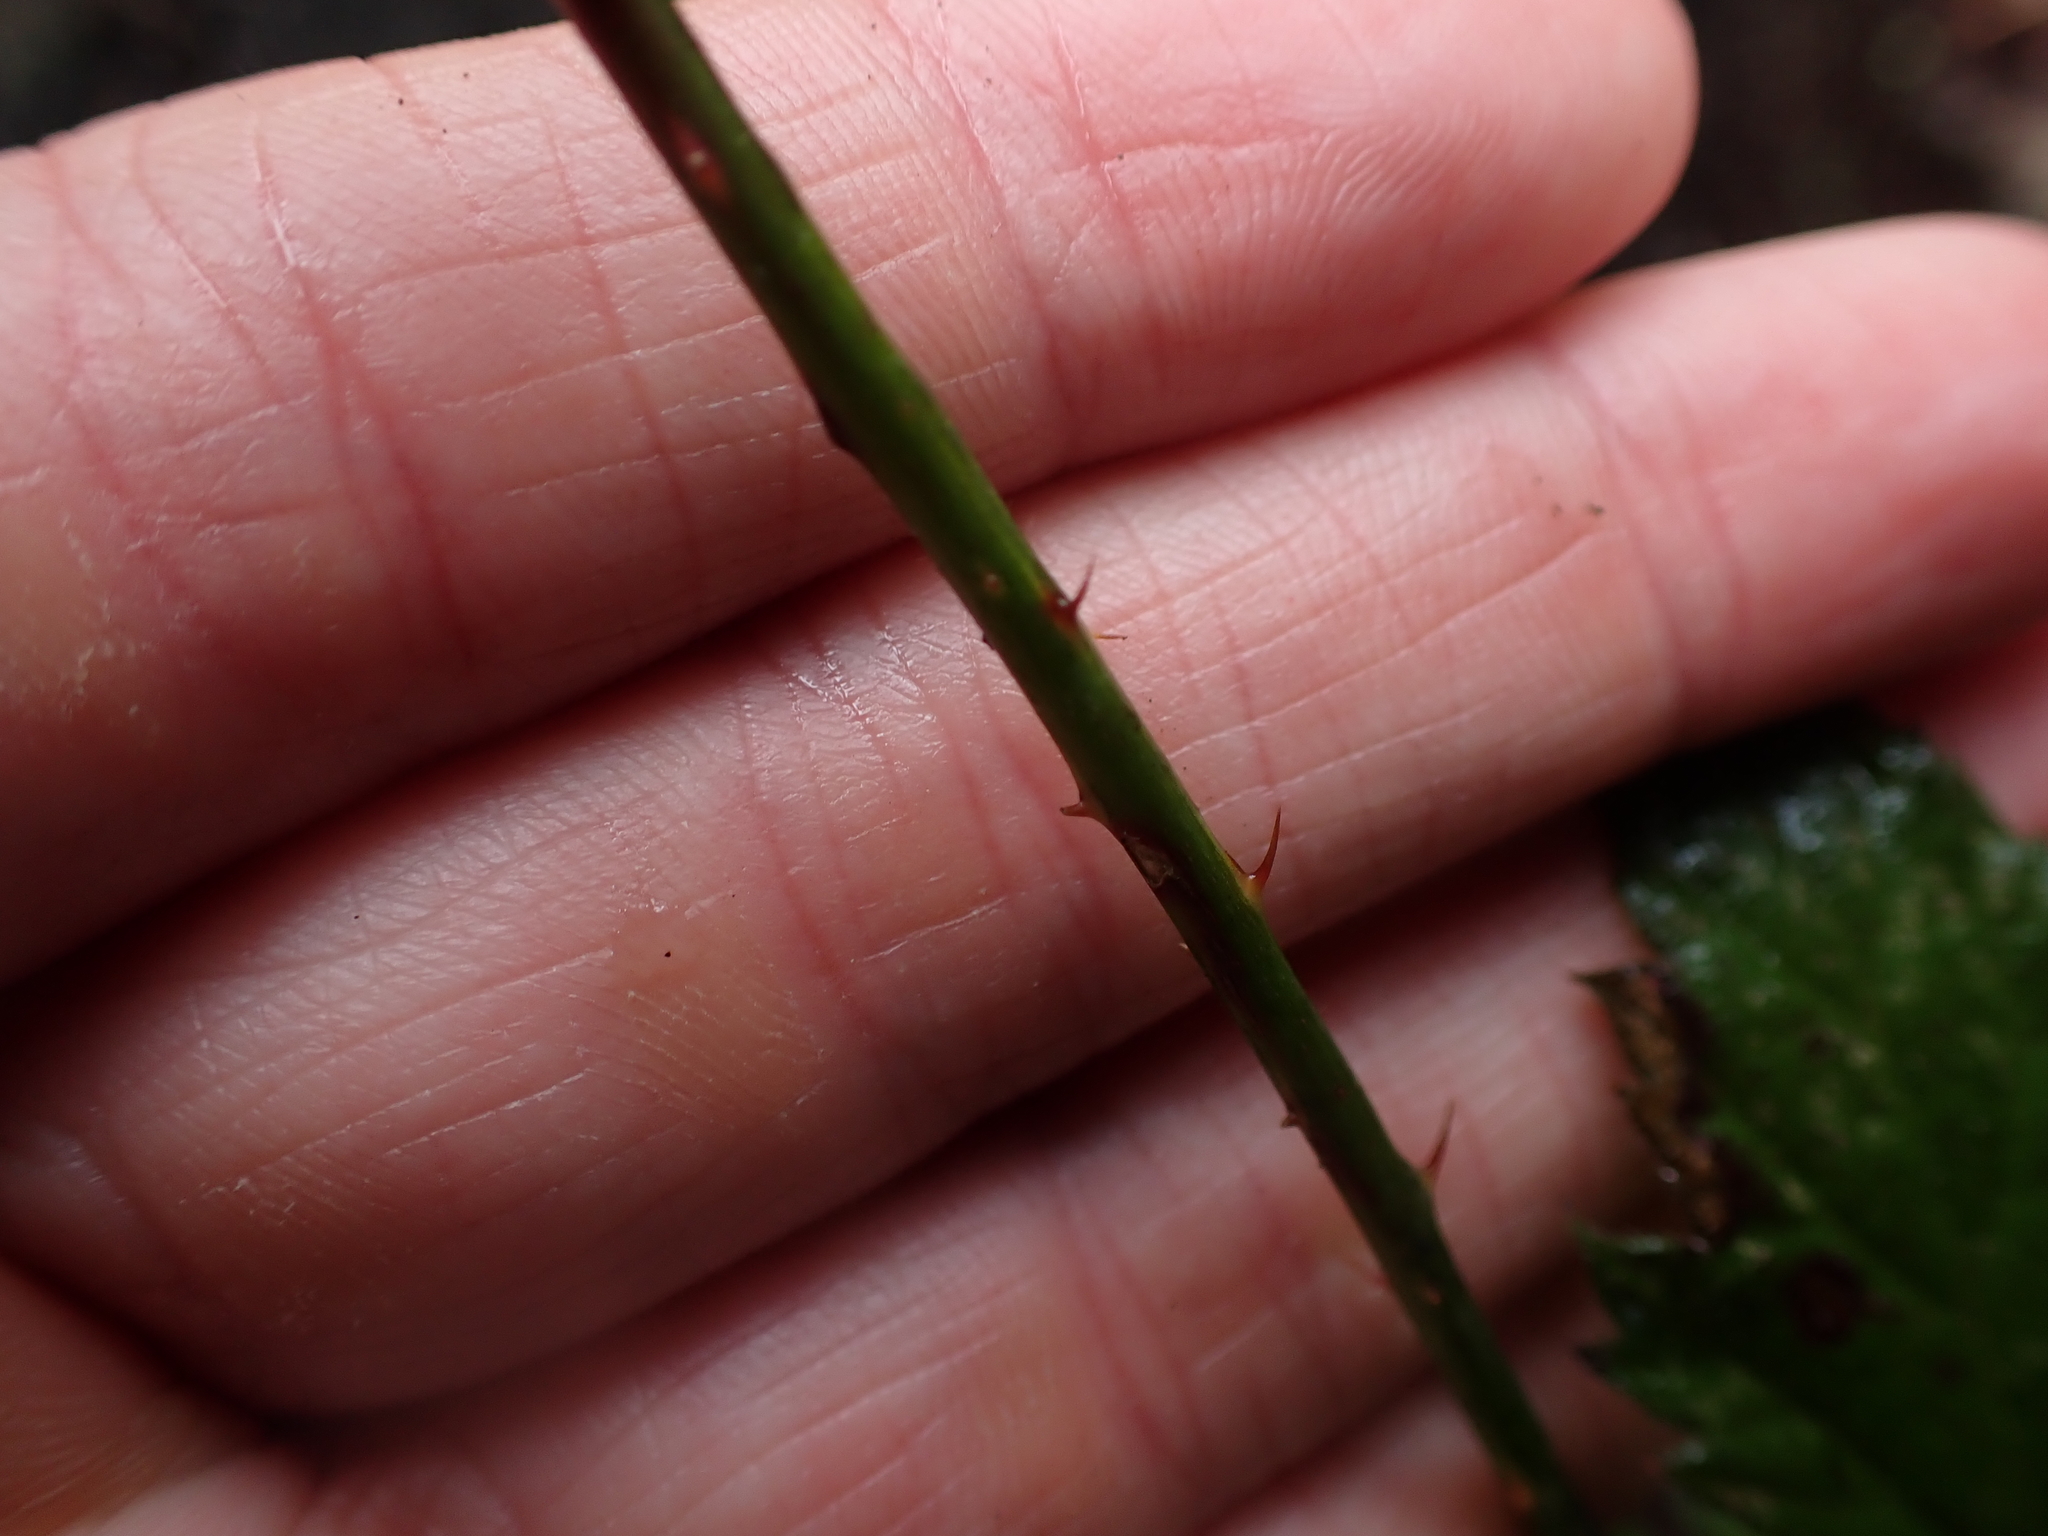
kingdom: Plantae
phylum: Tracheophyta
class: Magnoliopsida
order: Rosales
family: Rosaceae
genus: Rubus
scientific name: Rubus ursinus
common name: Pacific blackberry
